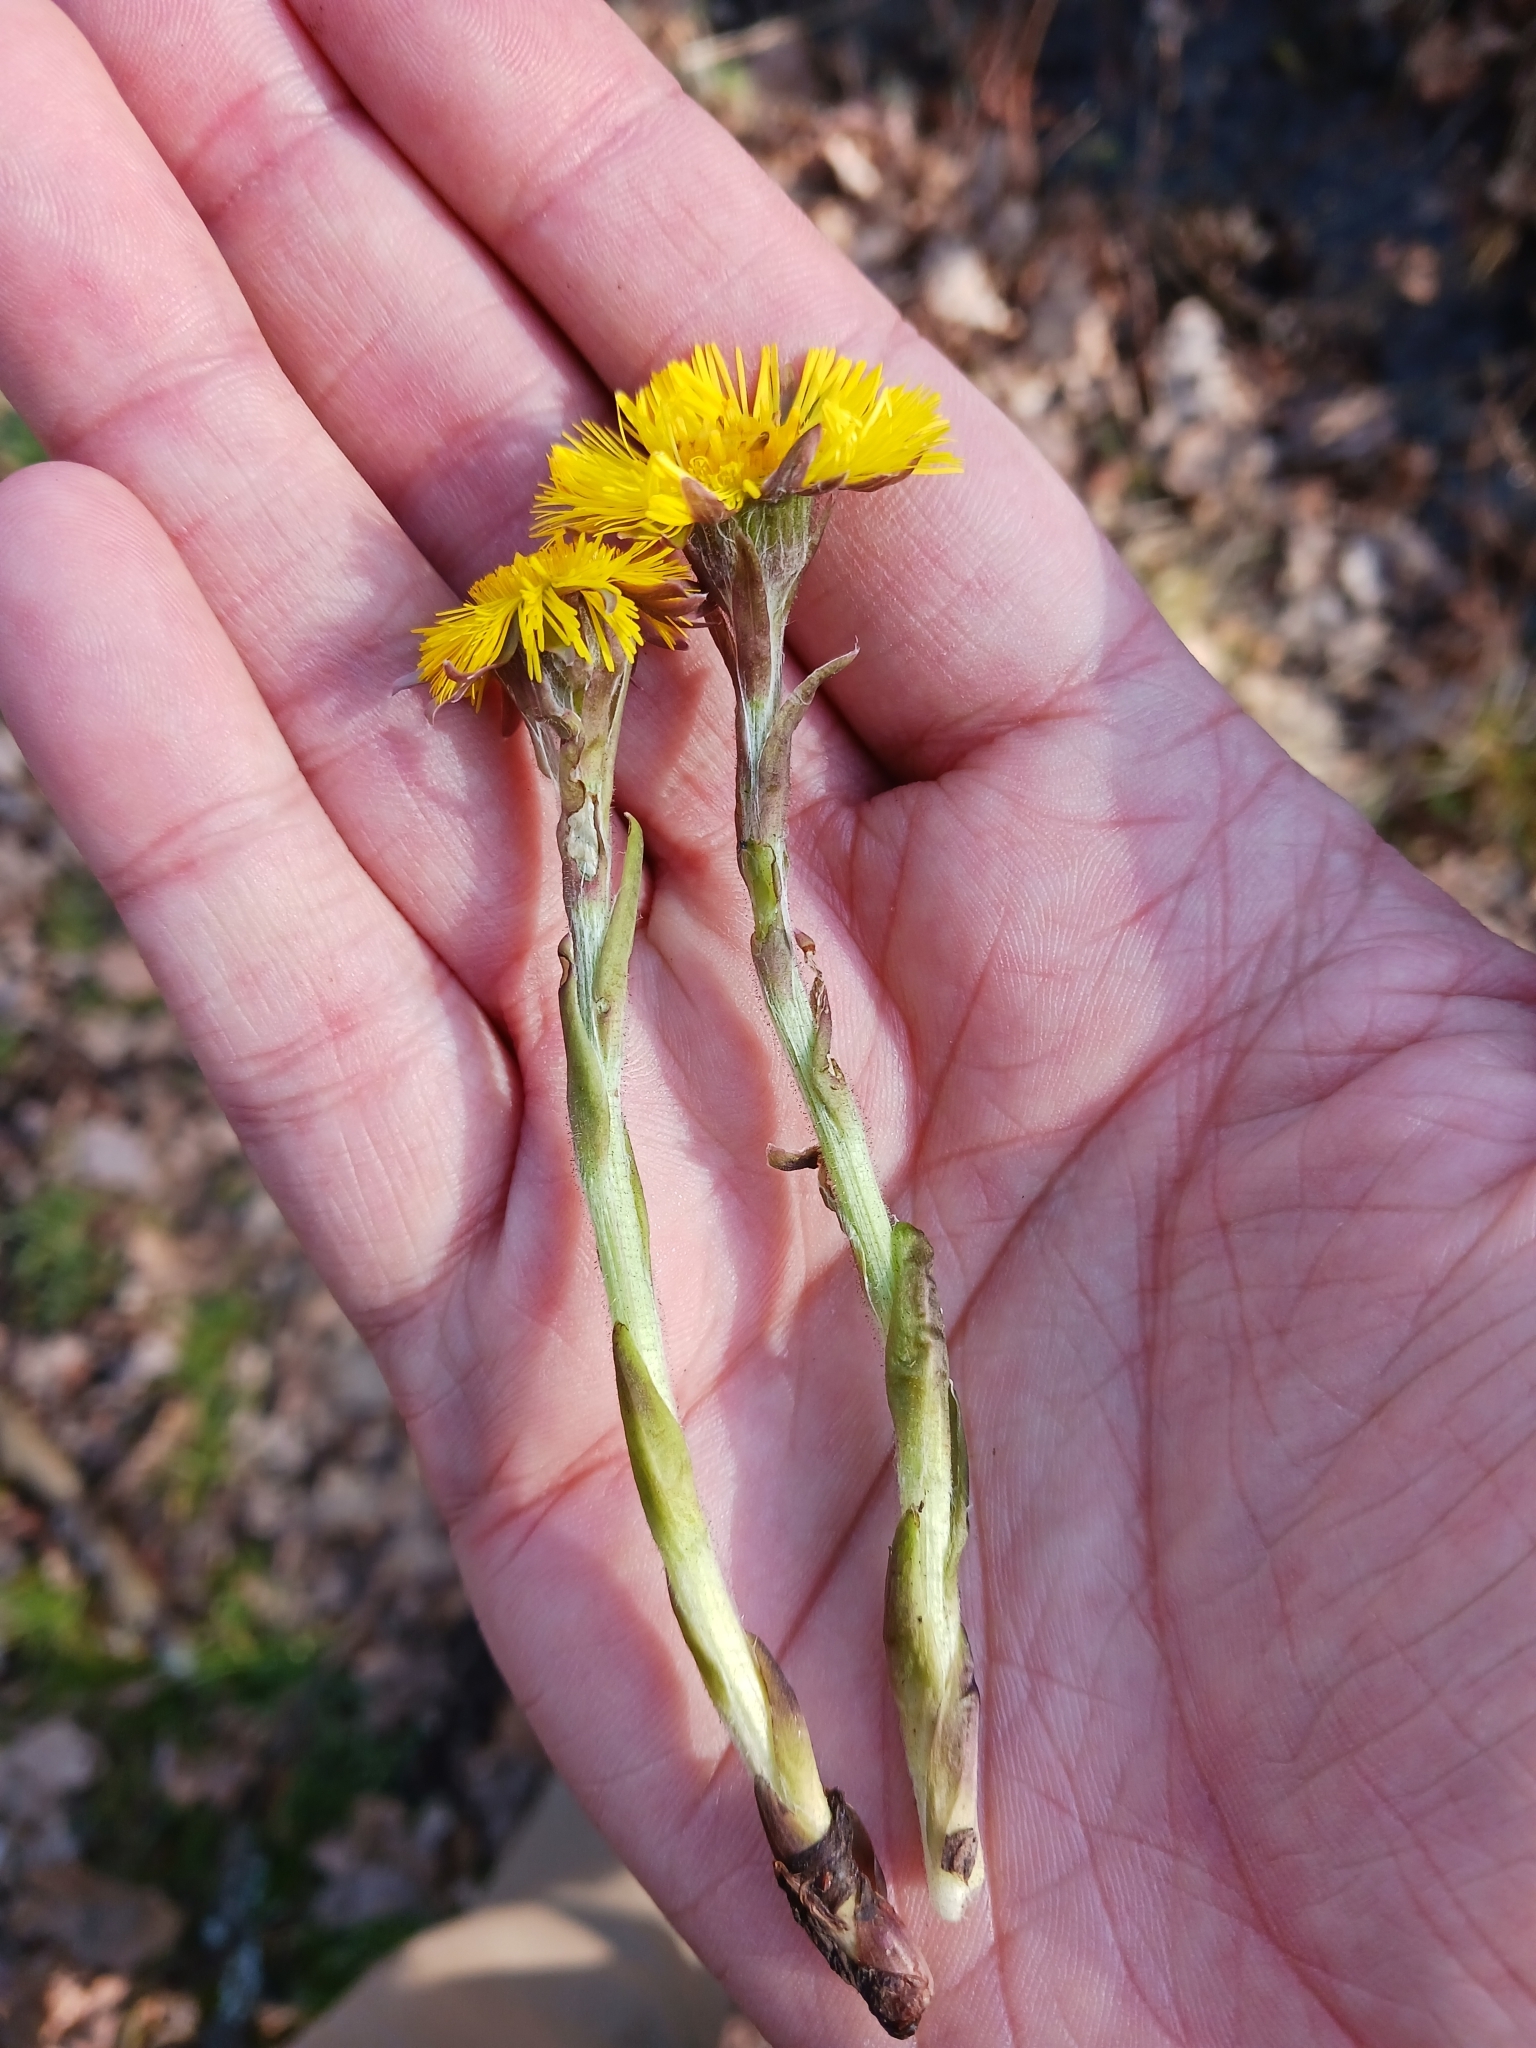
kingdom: Plantae
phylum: Tracheophyta
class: Magnoliopsida
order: Asterales
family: Asteraceae
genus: Tussilago
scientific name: Tussilago farfara
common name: Coltsfoot
